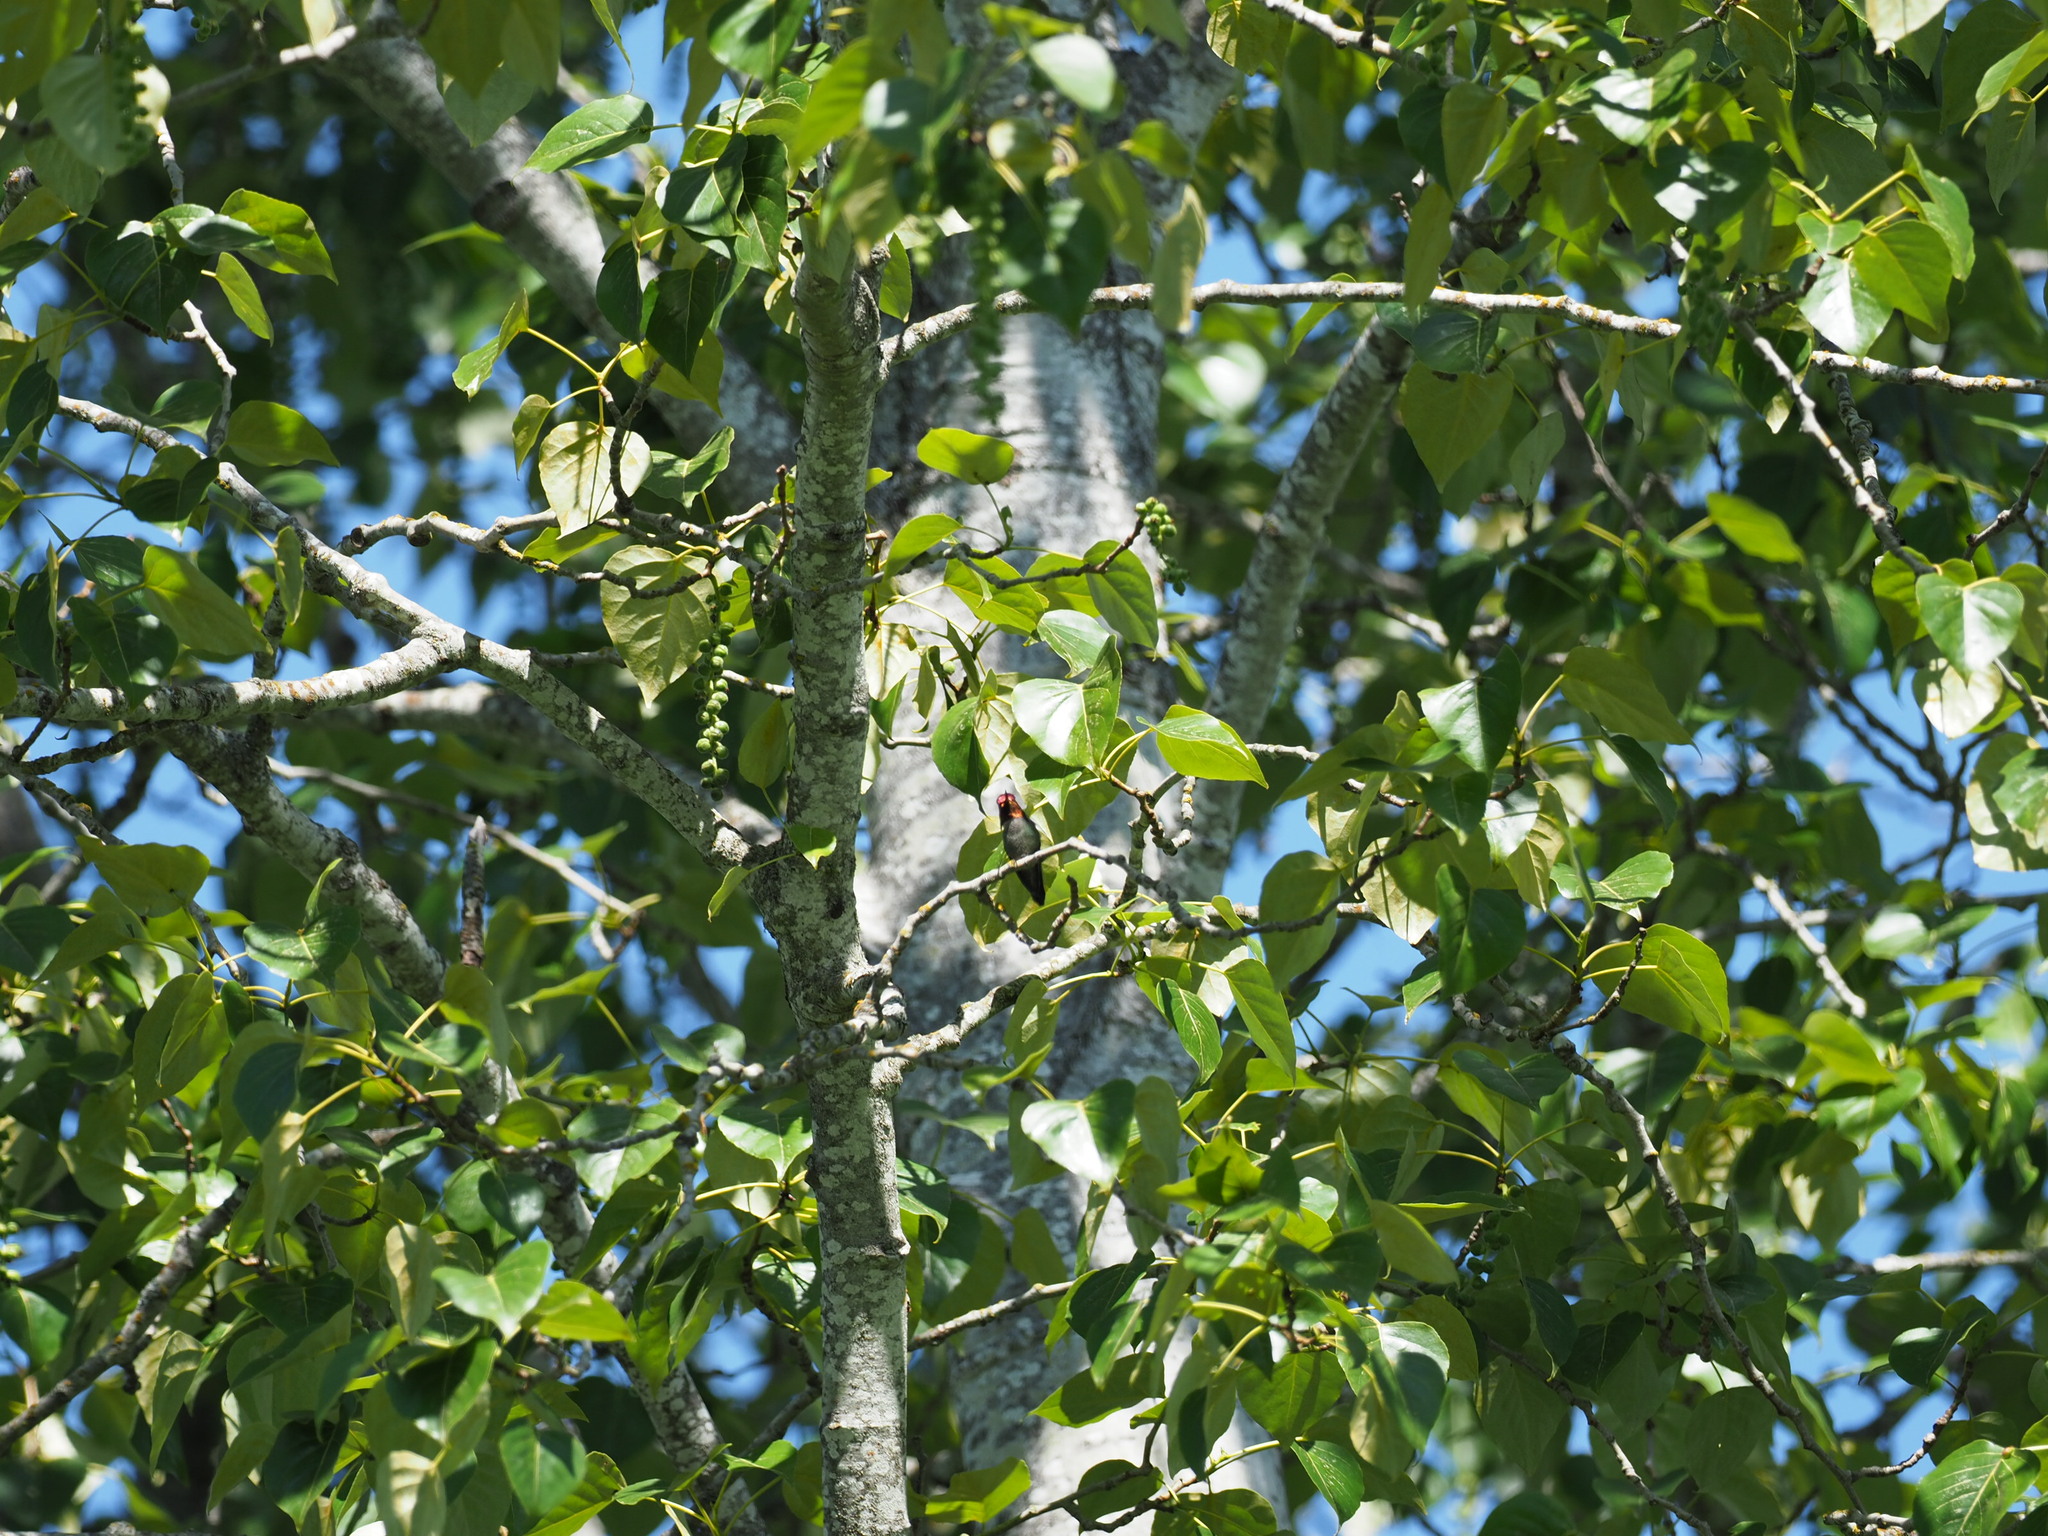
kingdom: Animalia
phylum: Chordata
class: Aves
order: Apodiformes
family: Trochilidae
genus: Calypte
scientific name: Calypte anna
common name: Anna's hummingbird
